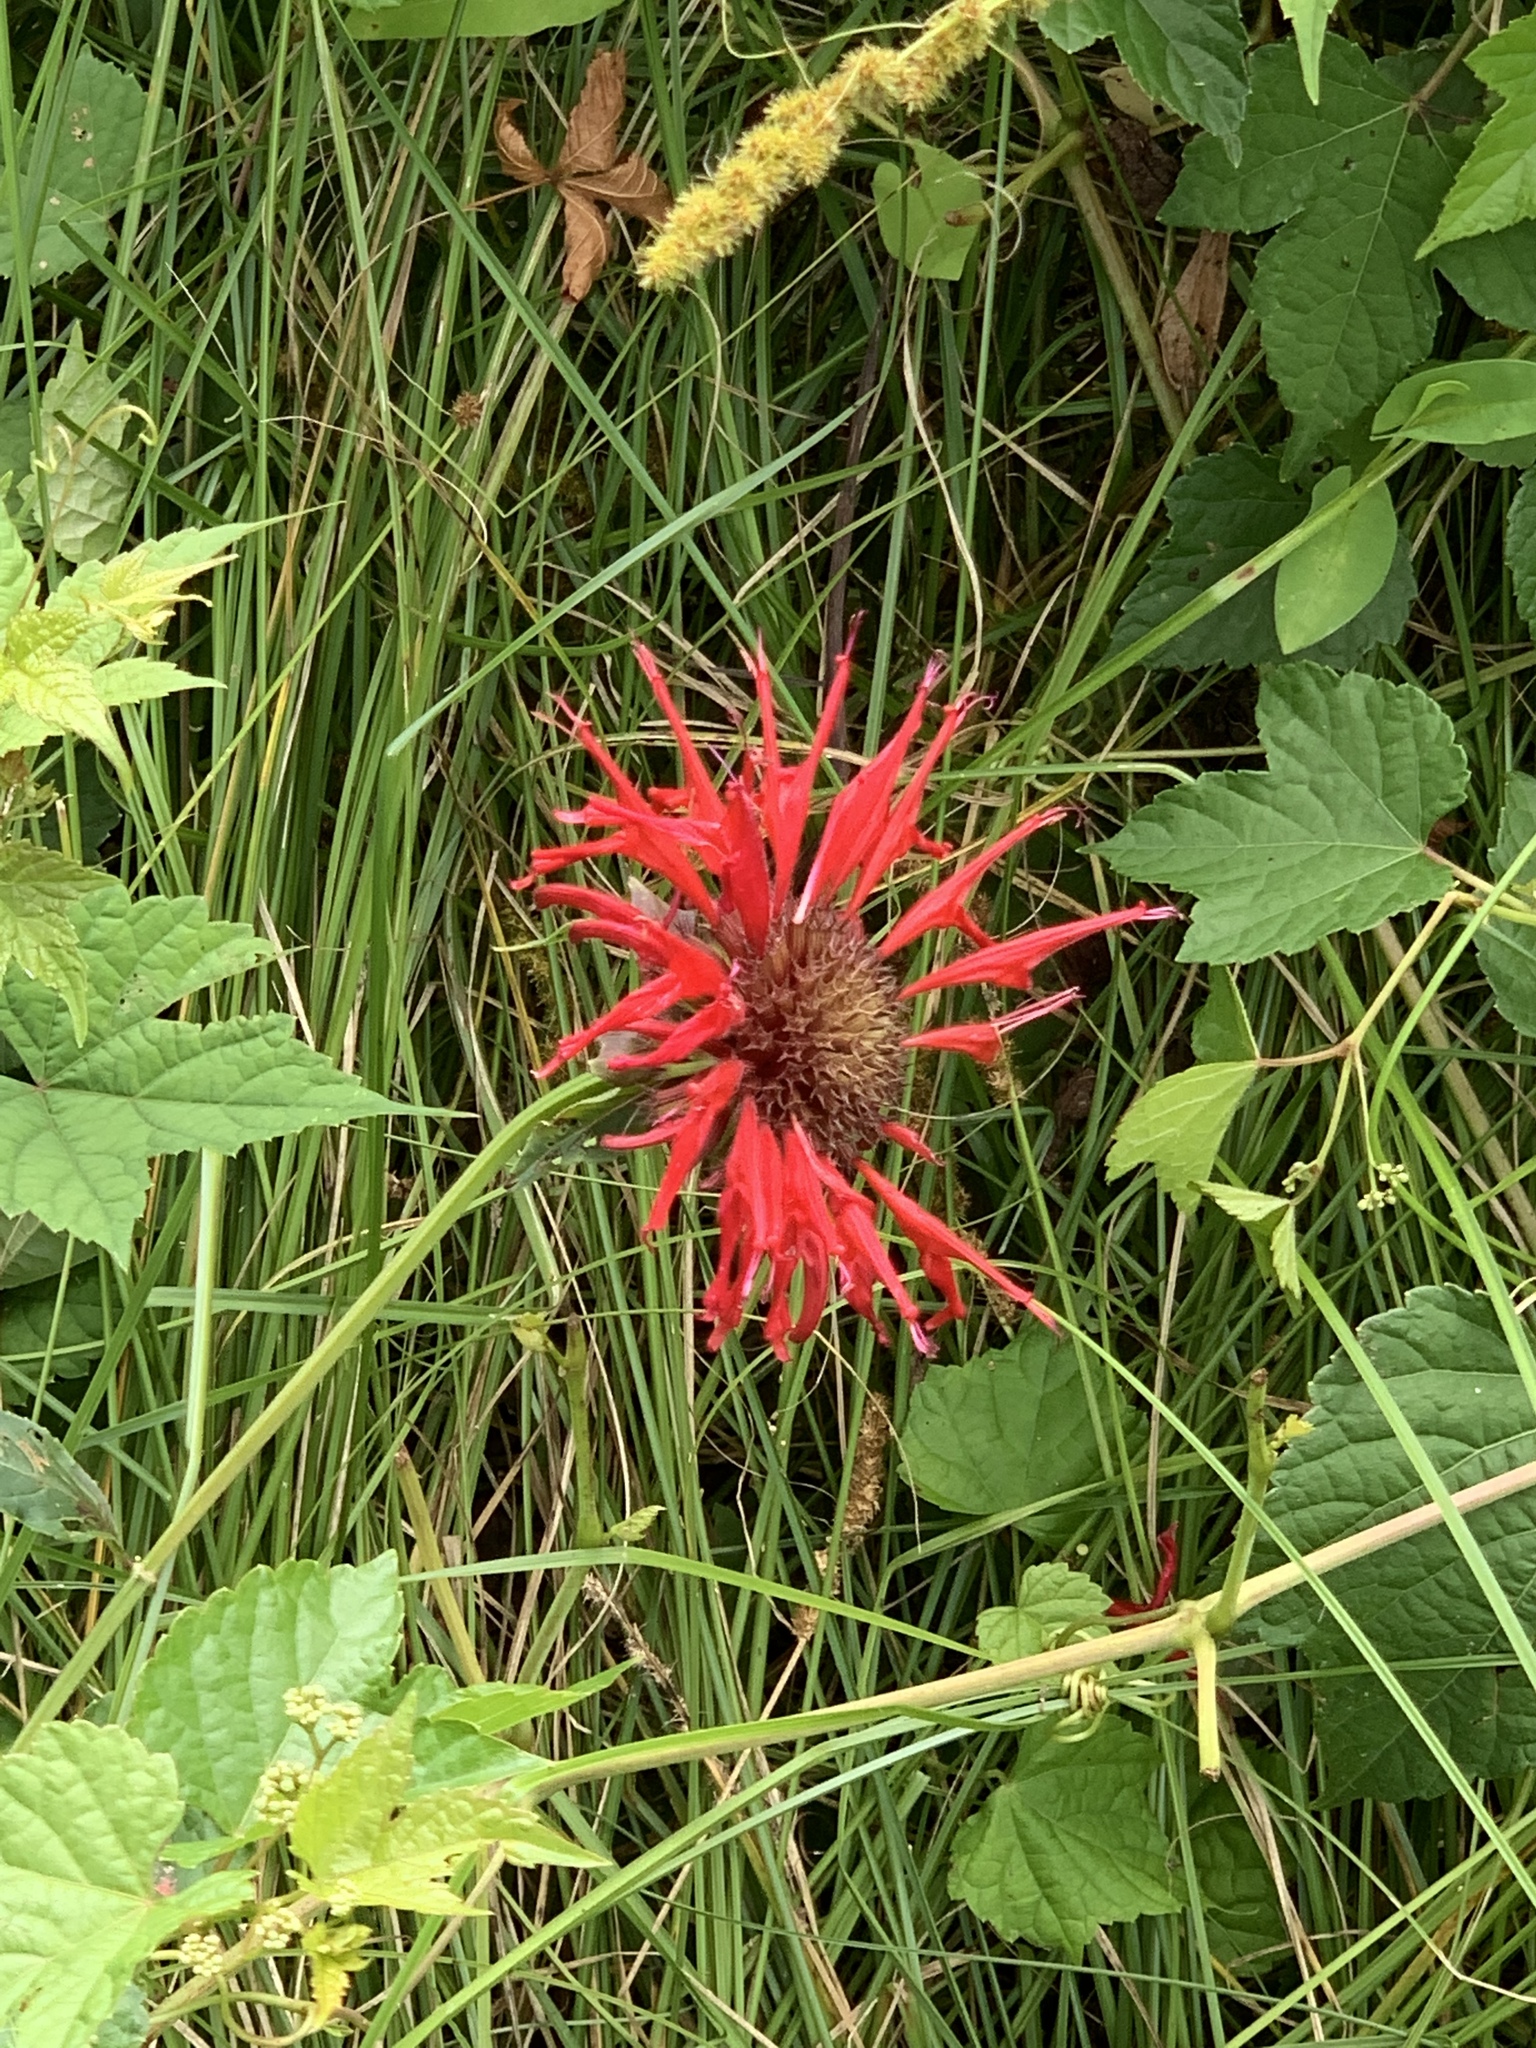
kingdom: Plantae
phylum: Tracheophyta
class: Magnoliopsida
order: Lamiales
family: Lamiaceae
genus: Monarda
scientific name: Monarda didyma
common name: Beebalm
